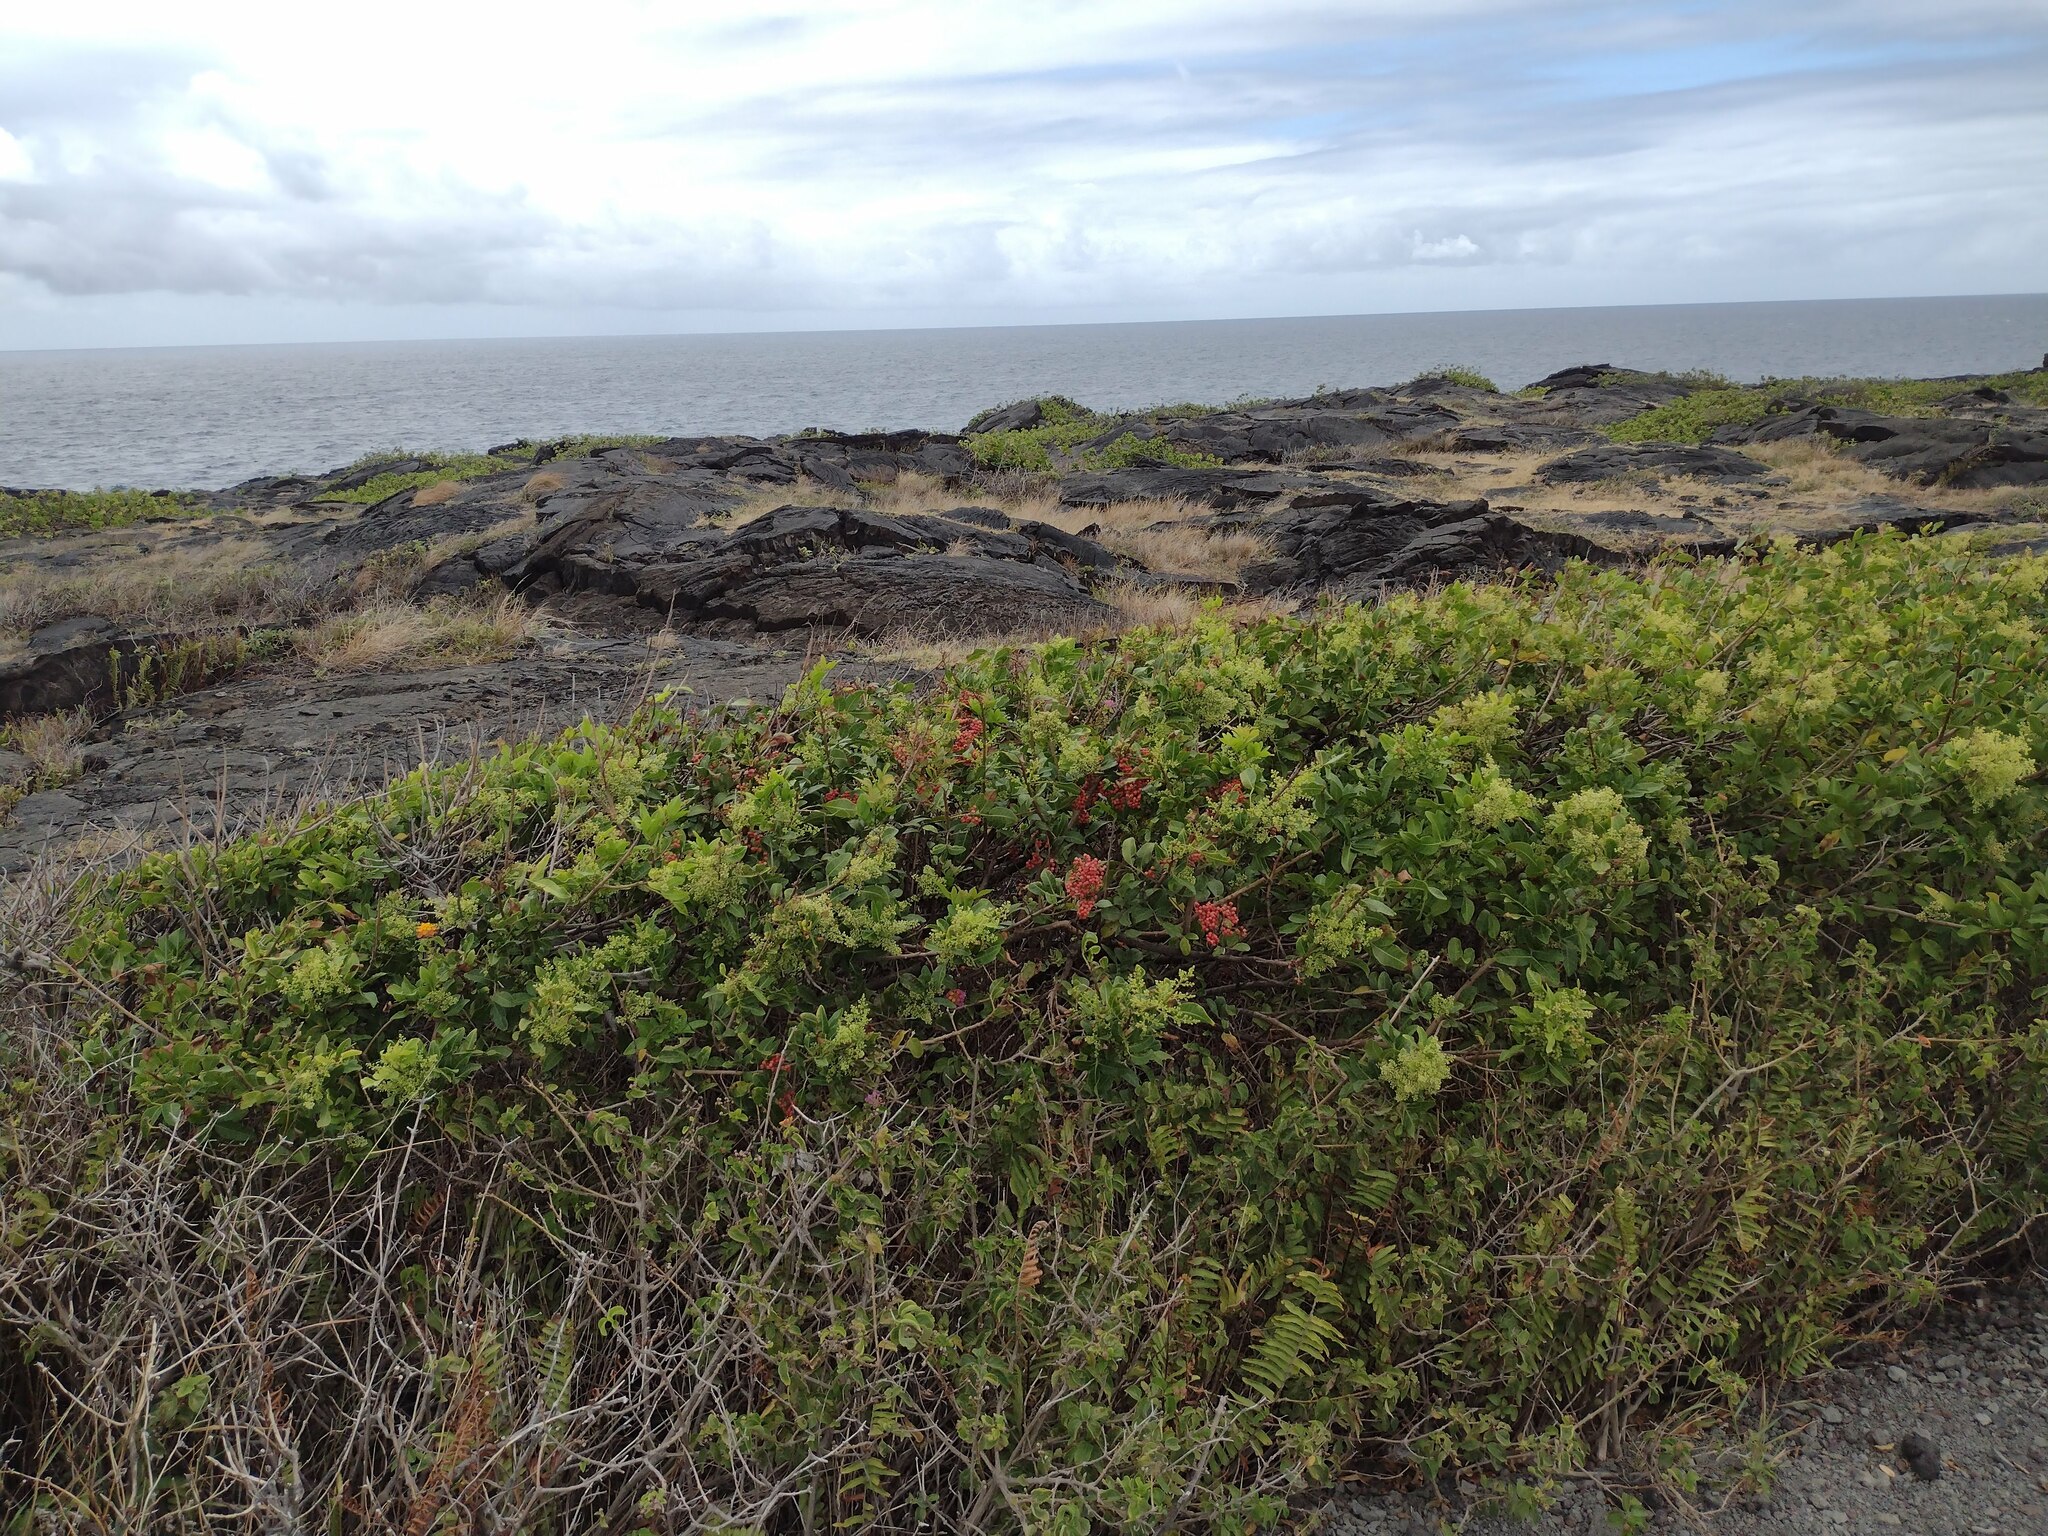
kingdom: Plantae
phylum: Tracheophyta
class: Magnoliopsida
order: Sapindales
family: Anacardiaceae
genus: Schinus
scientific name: Schinus terebinthifolia
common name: Brazilian peppertree
